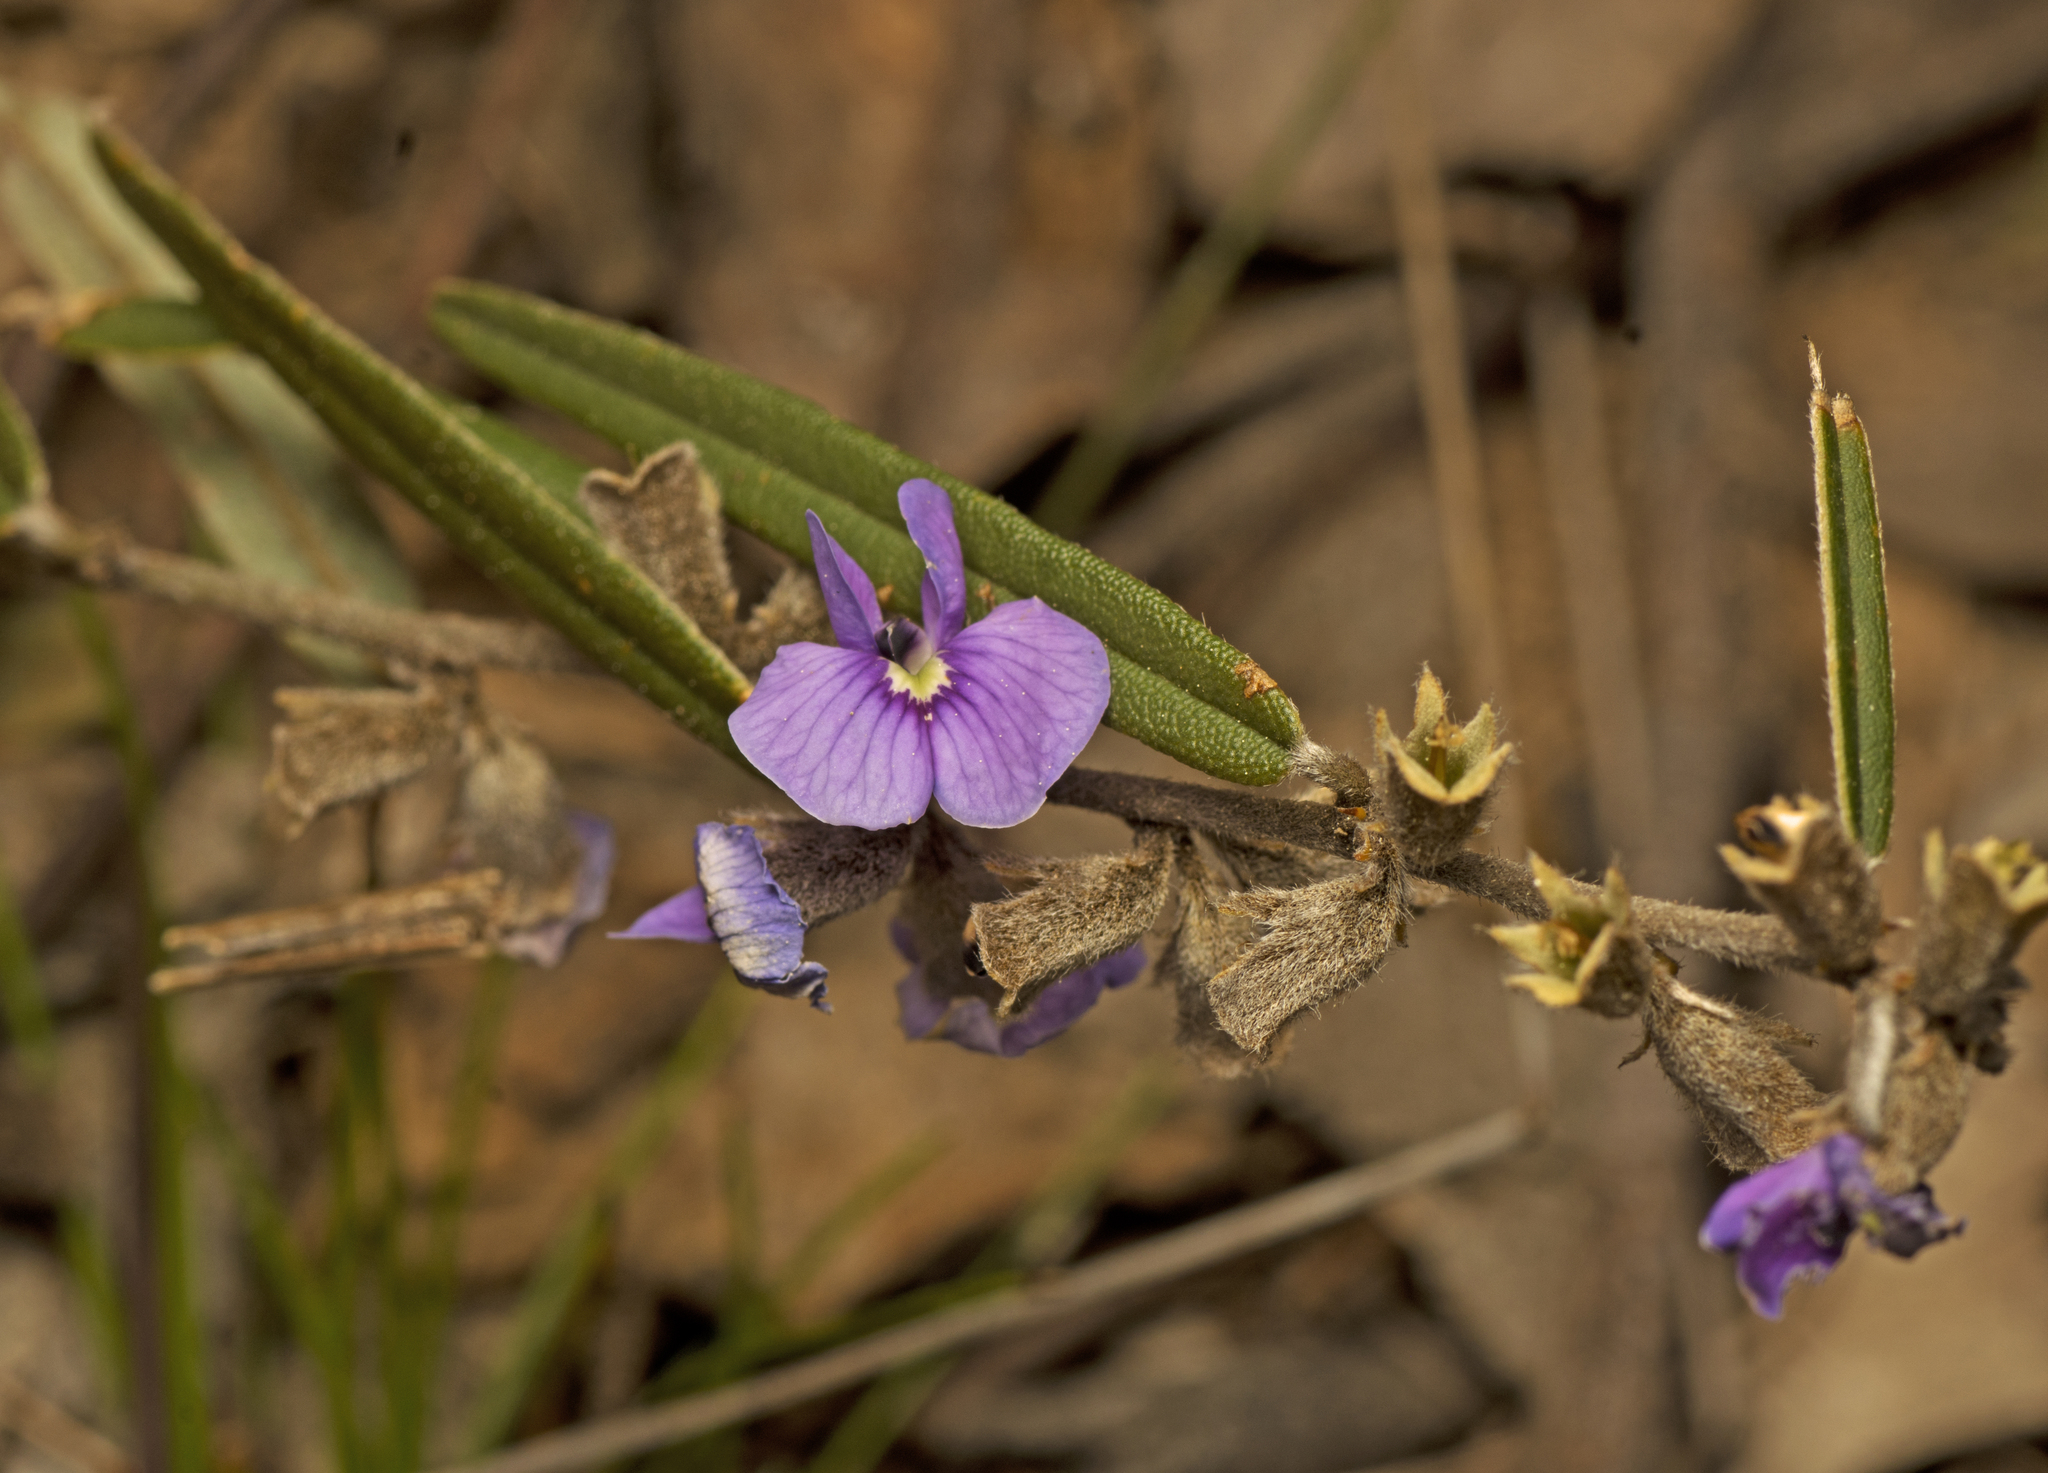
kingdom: Plantae
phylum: Tracheophyta
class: Magnoliopsida
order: Fabales
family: Fabaceae
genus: Hovea
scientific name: Hovea heterophylla
